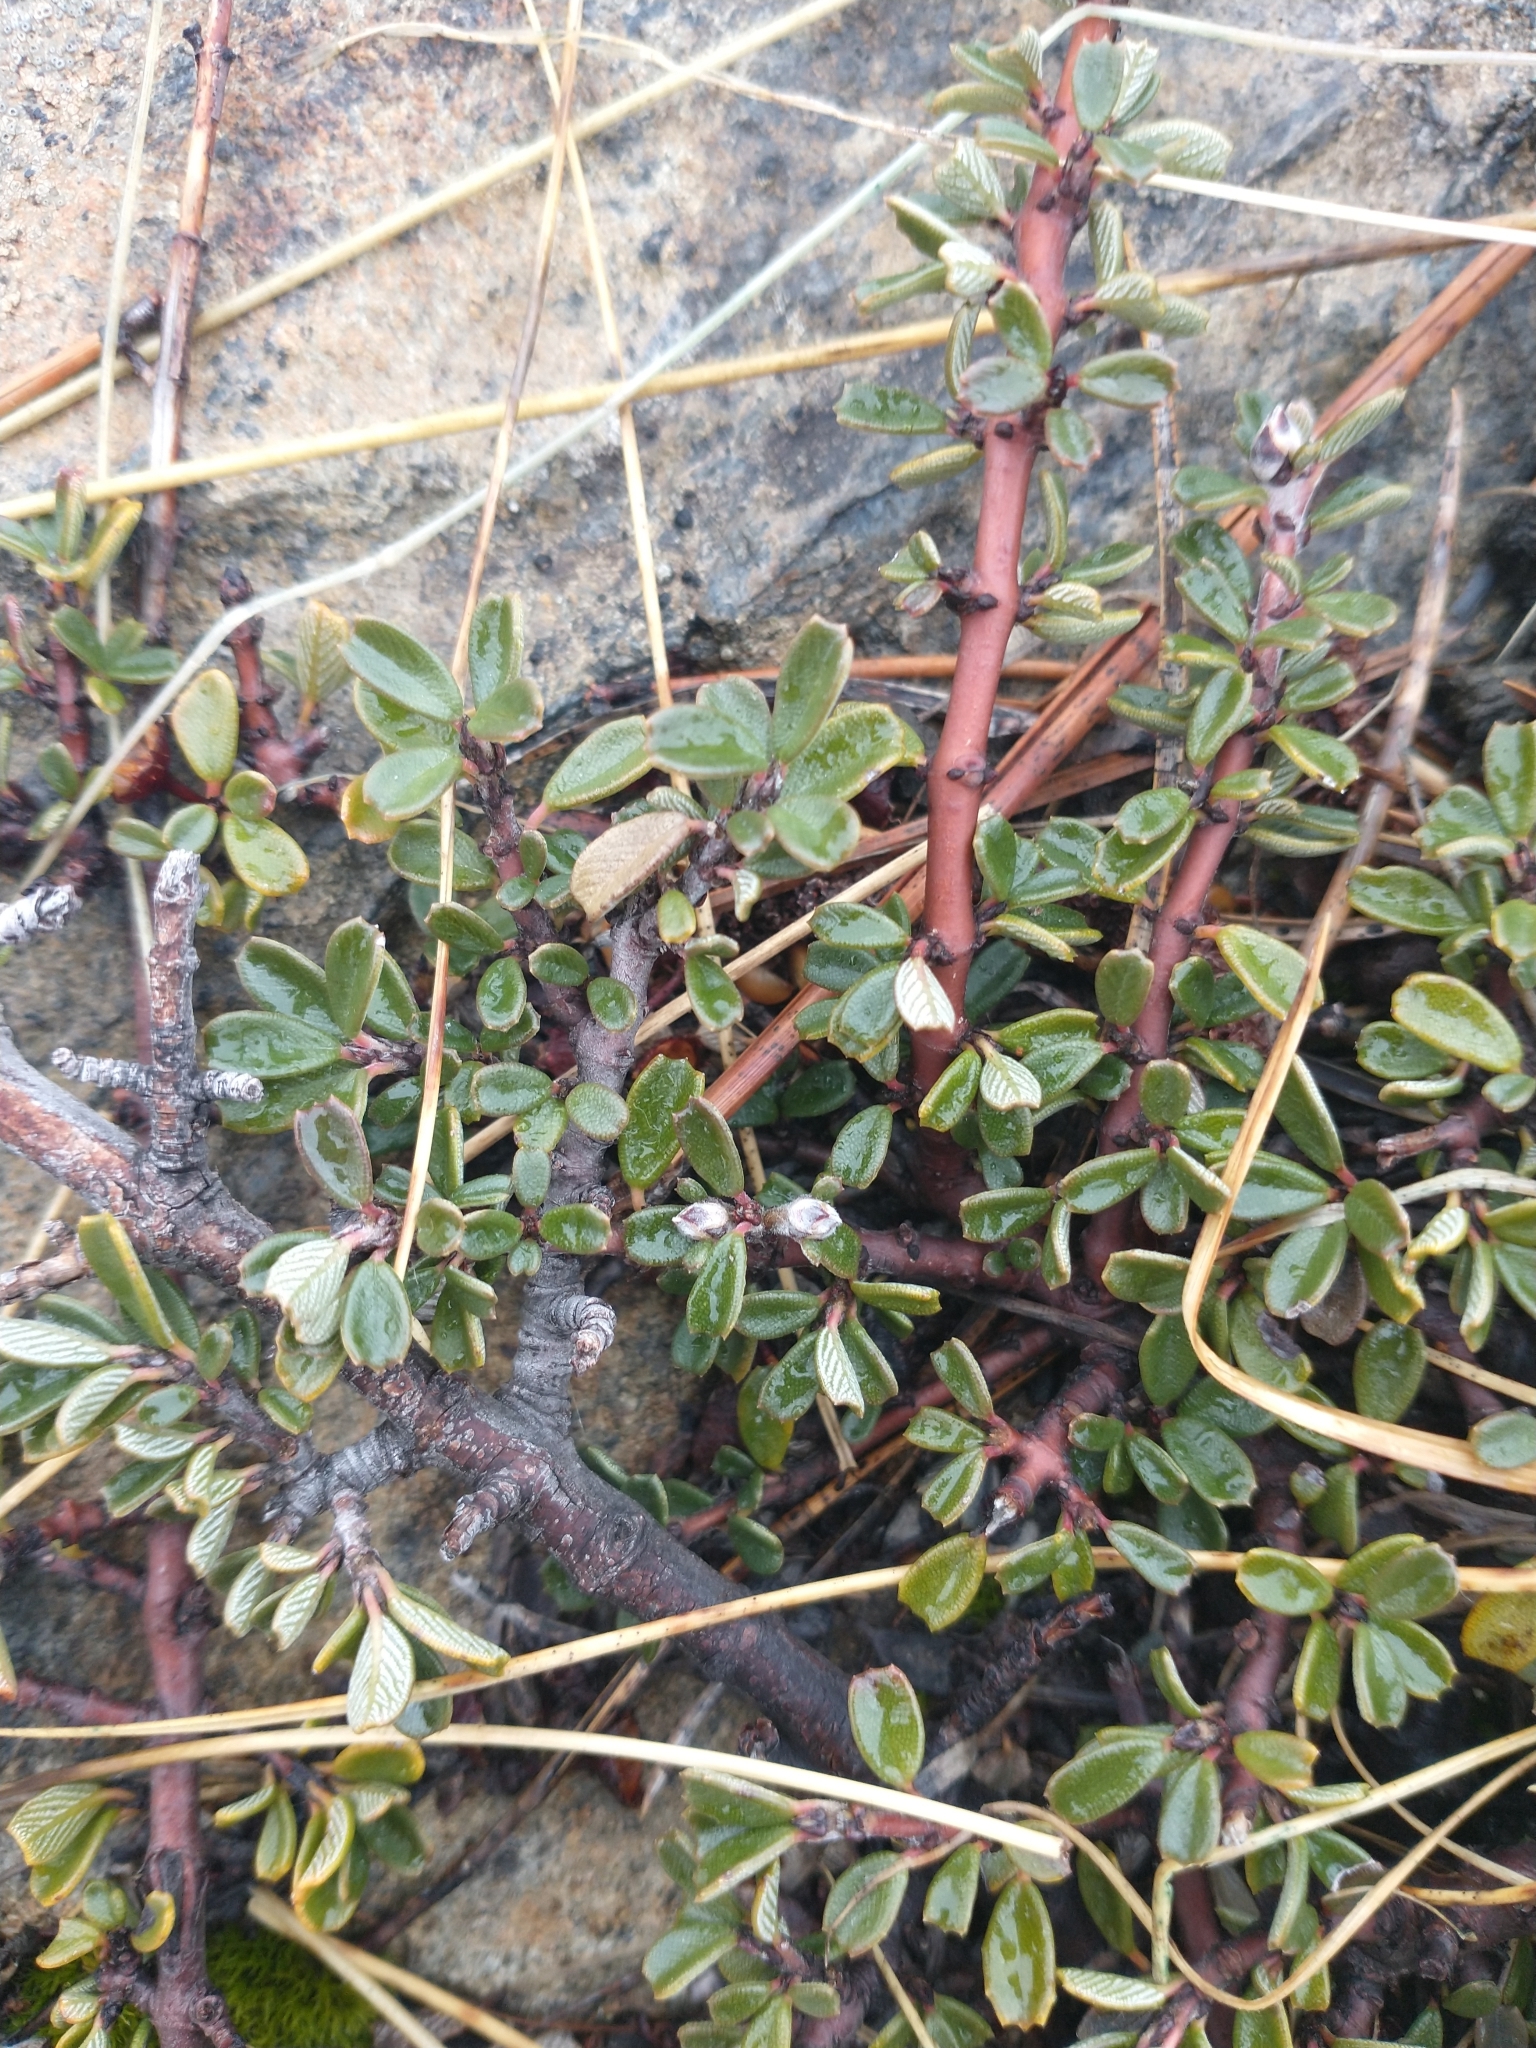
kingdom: Plantae
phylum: Tracheophyta
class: Magnoliopsida
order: Rosales
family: Rhamnaceae
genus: Ceanothus
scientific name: Ceanothus pumilus
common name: Siskiyou-mat
